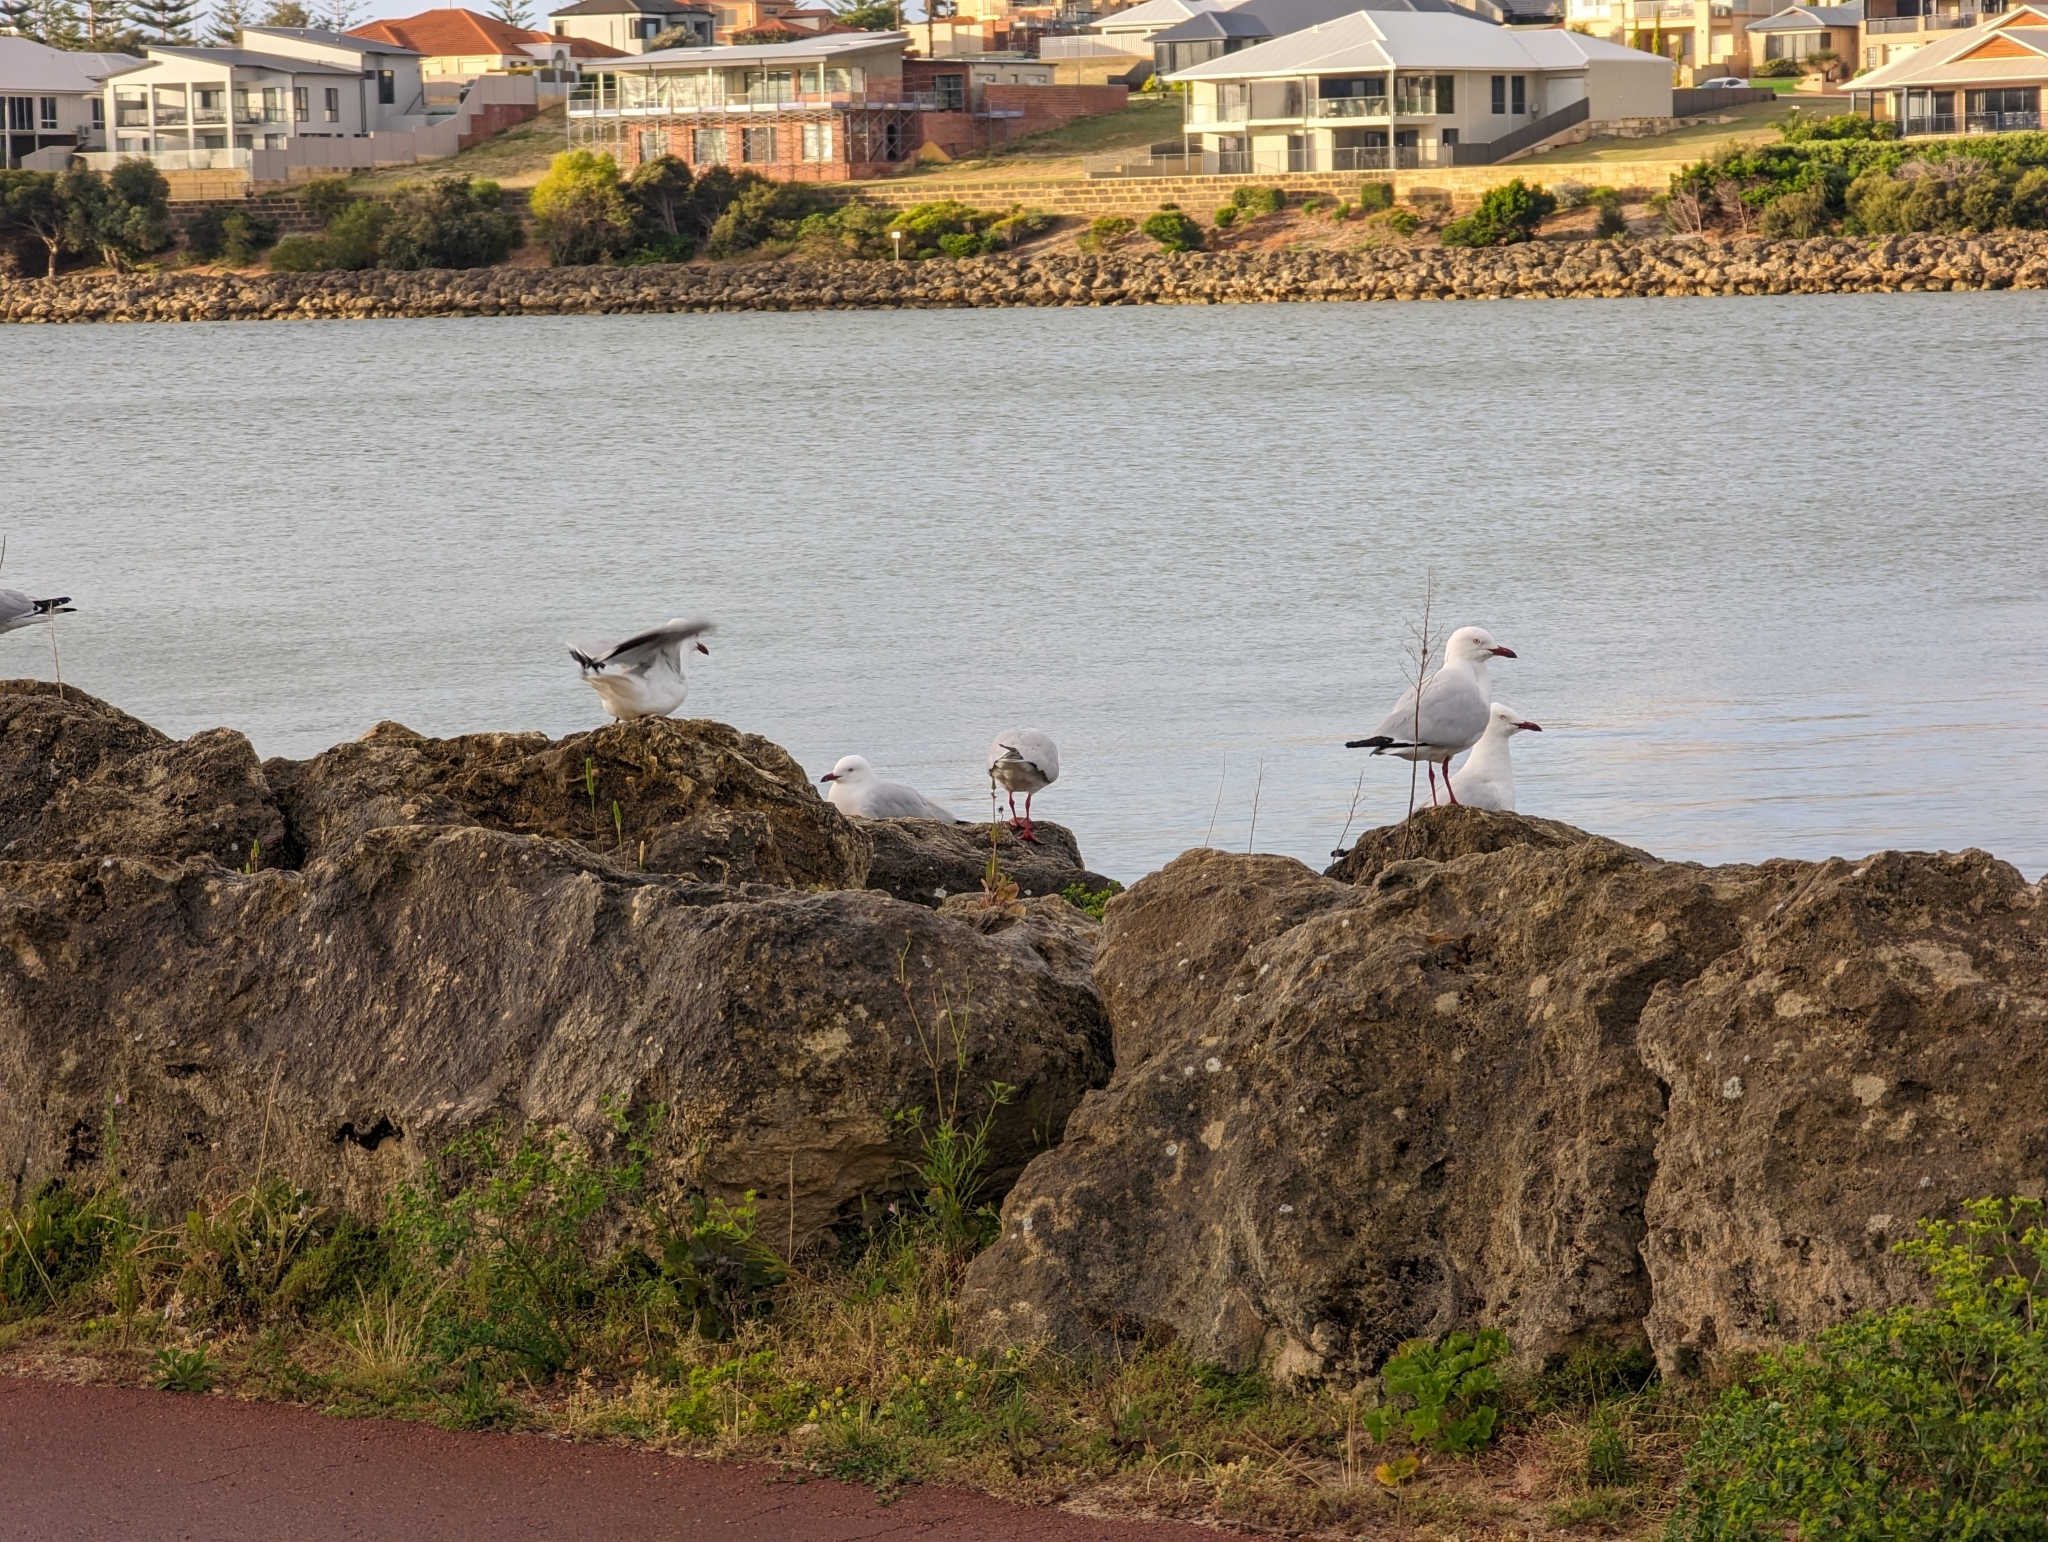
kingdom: Animalia
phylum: Chordata
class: Aves
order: Charadriiformes
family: Laridae
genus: Chroicocephalus
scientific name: Chroicocephalus novaehollandiae
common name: Silver gull
